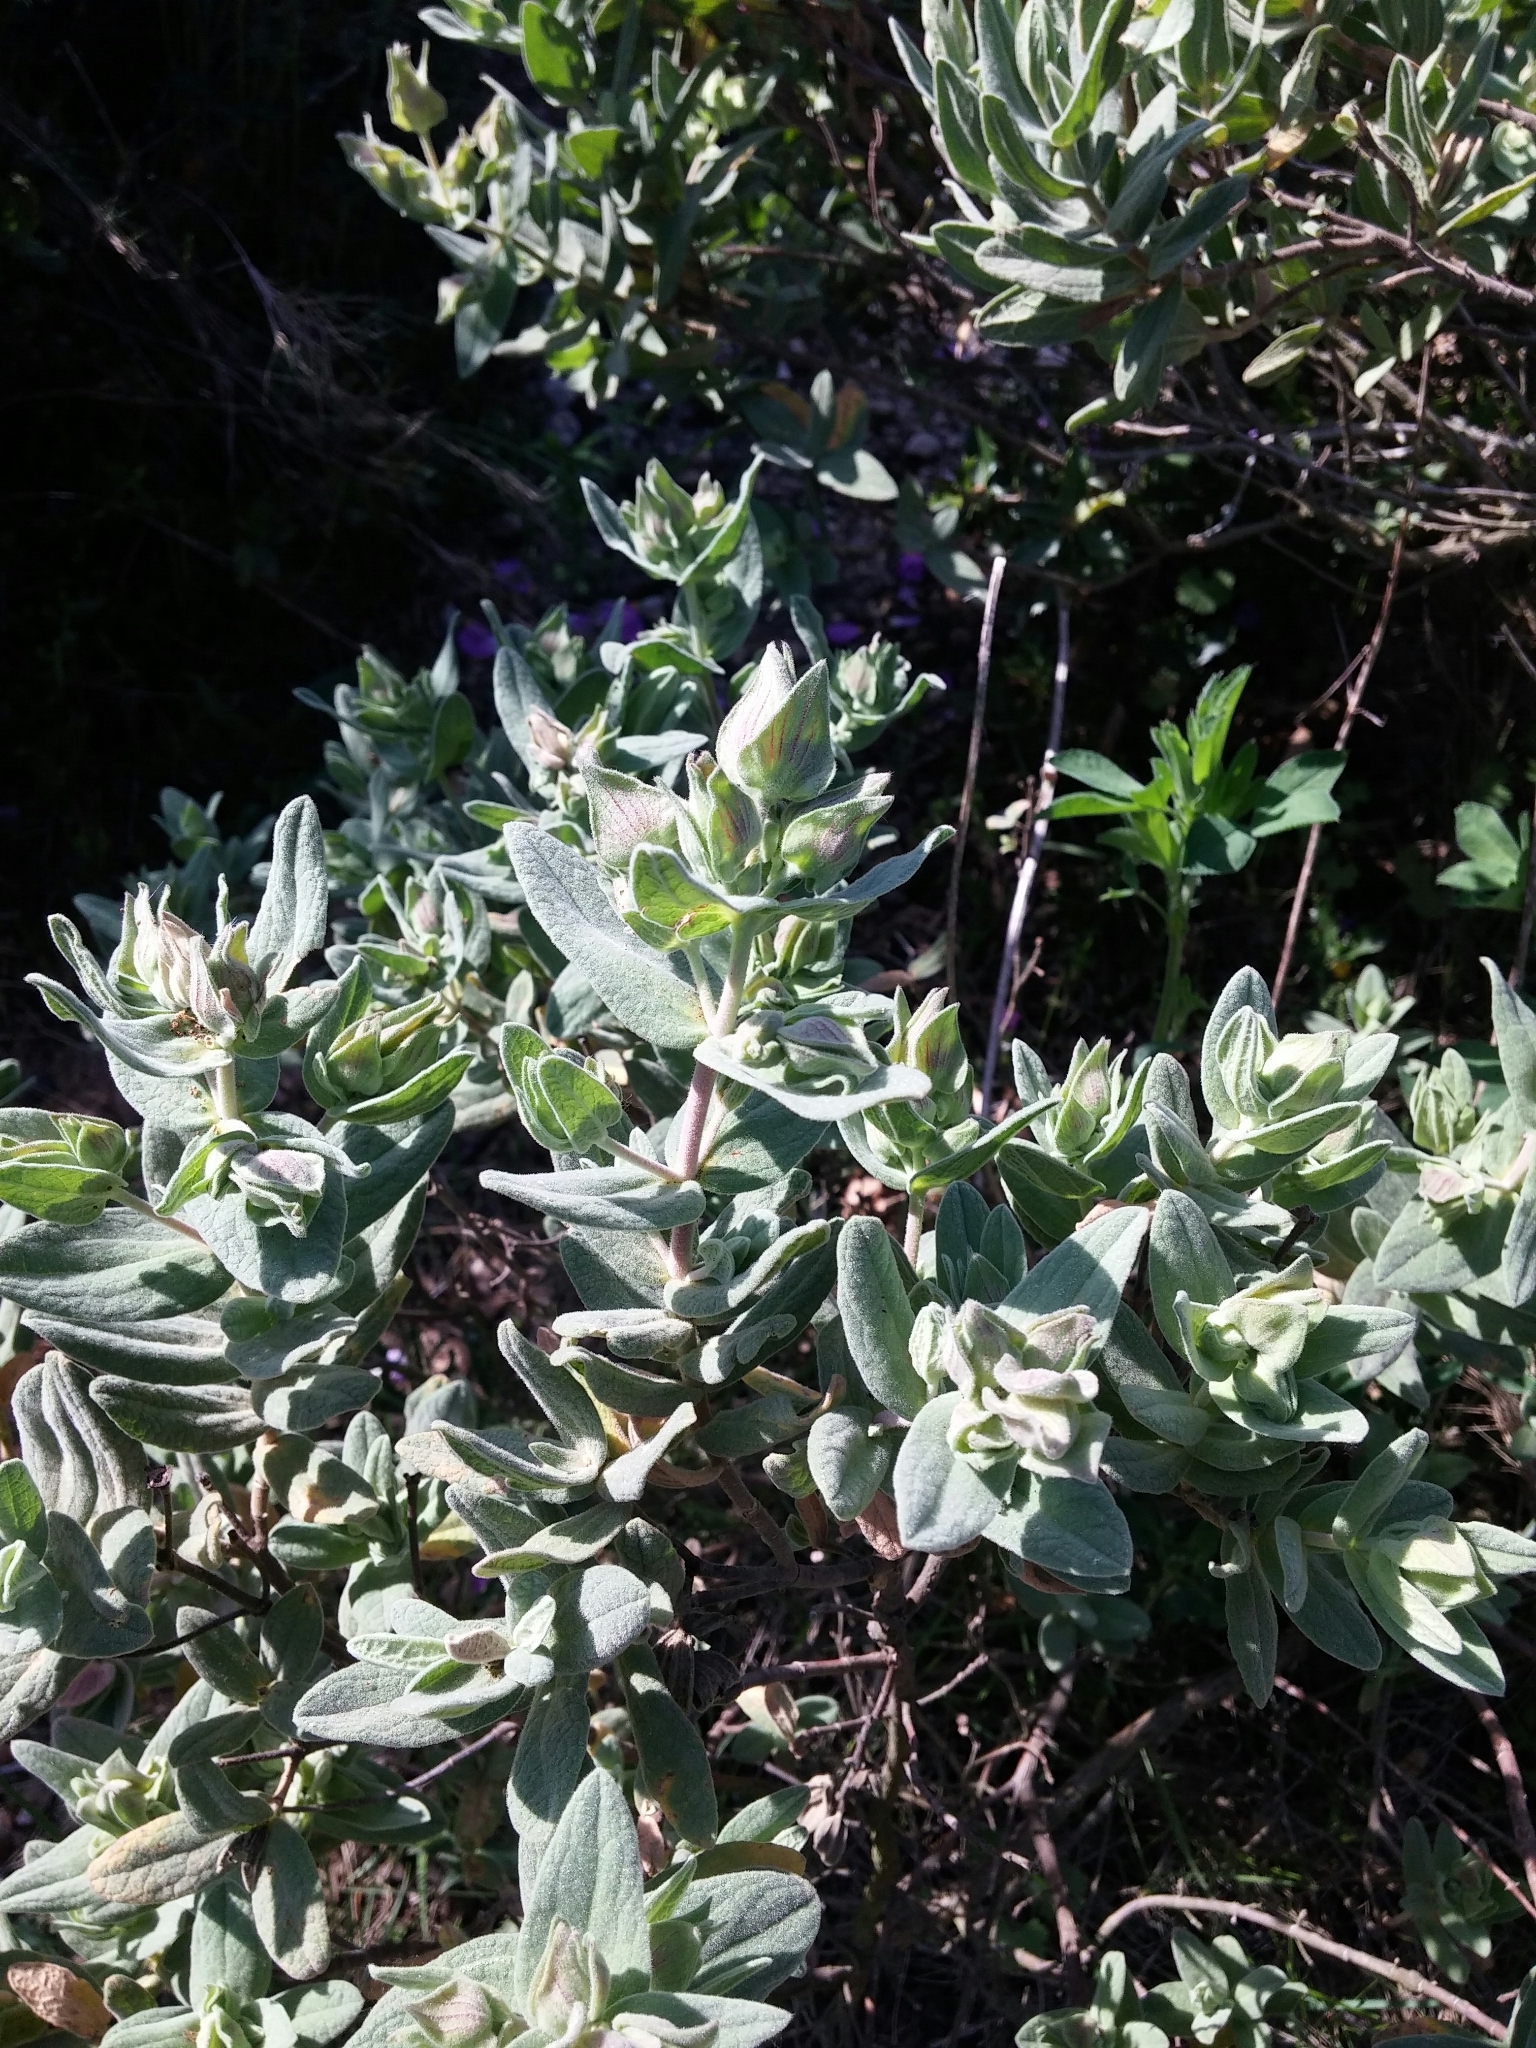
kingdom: Plantae
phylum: Tracheophyta
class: Magnoliopsida
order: Malvales
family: Cistaceae
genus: Cistus
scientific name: Cistus albidus
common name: White-leaf rock-rose
